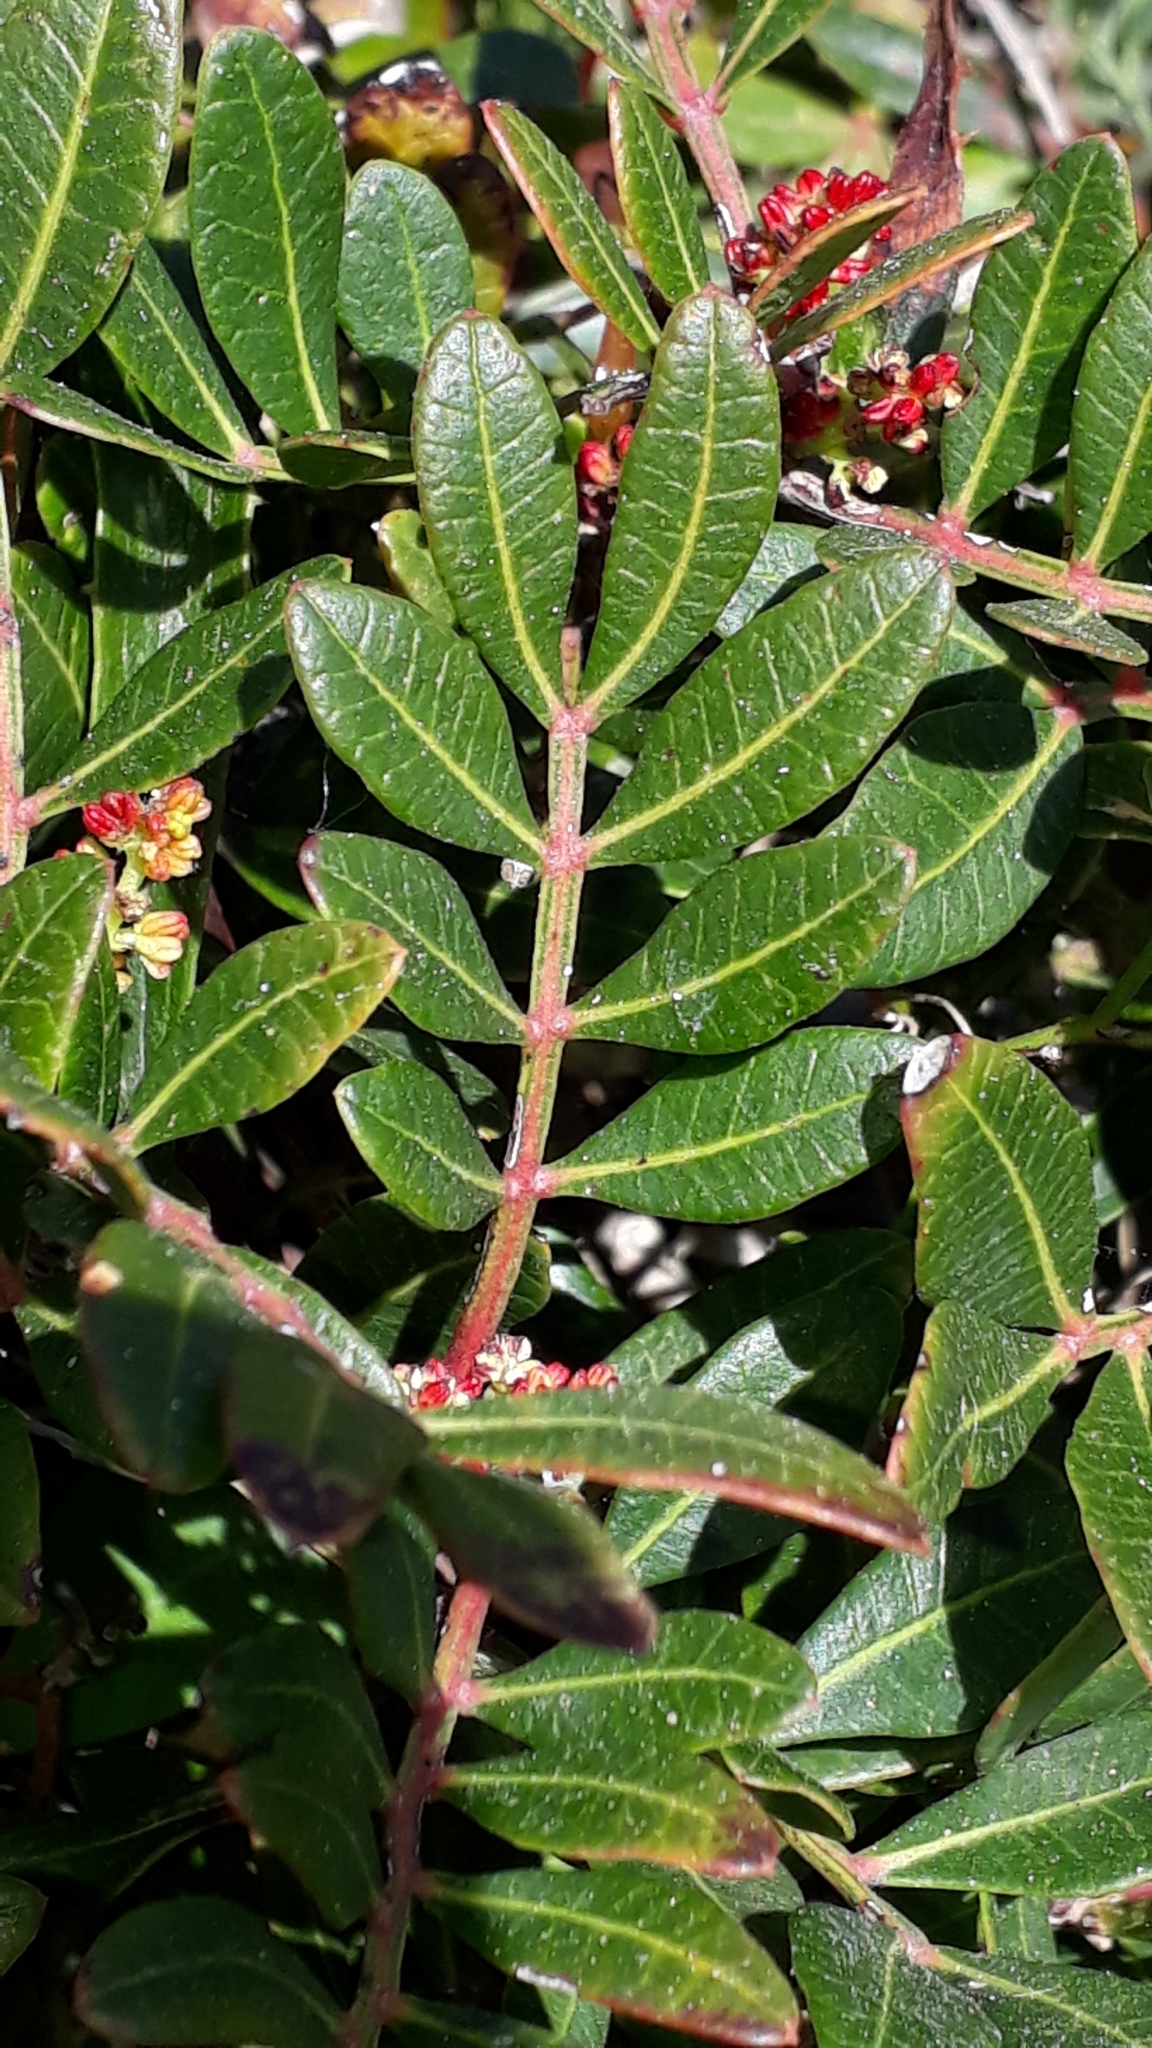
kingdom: Plantae
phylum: Tracheophyta
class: Magnoliopsida
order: Sapindales
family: Anacardiaceae
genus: Pistacia
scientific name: Pistacia lentiscus
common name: Lentisk
